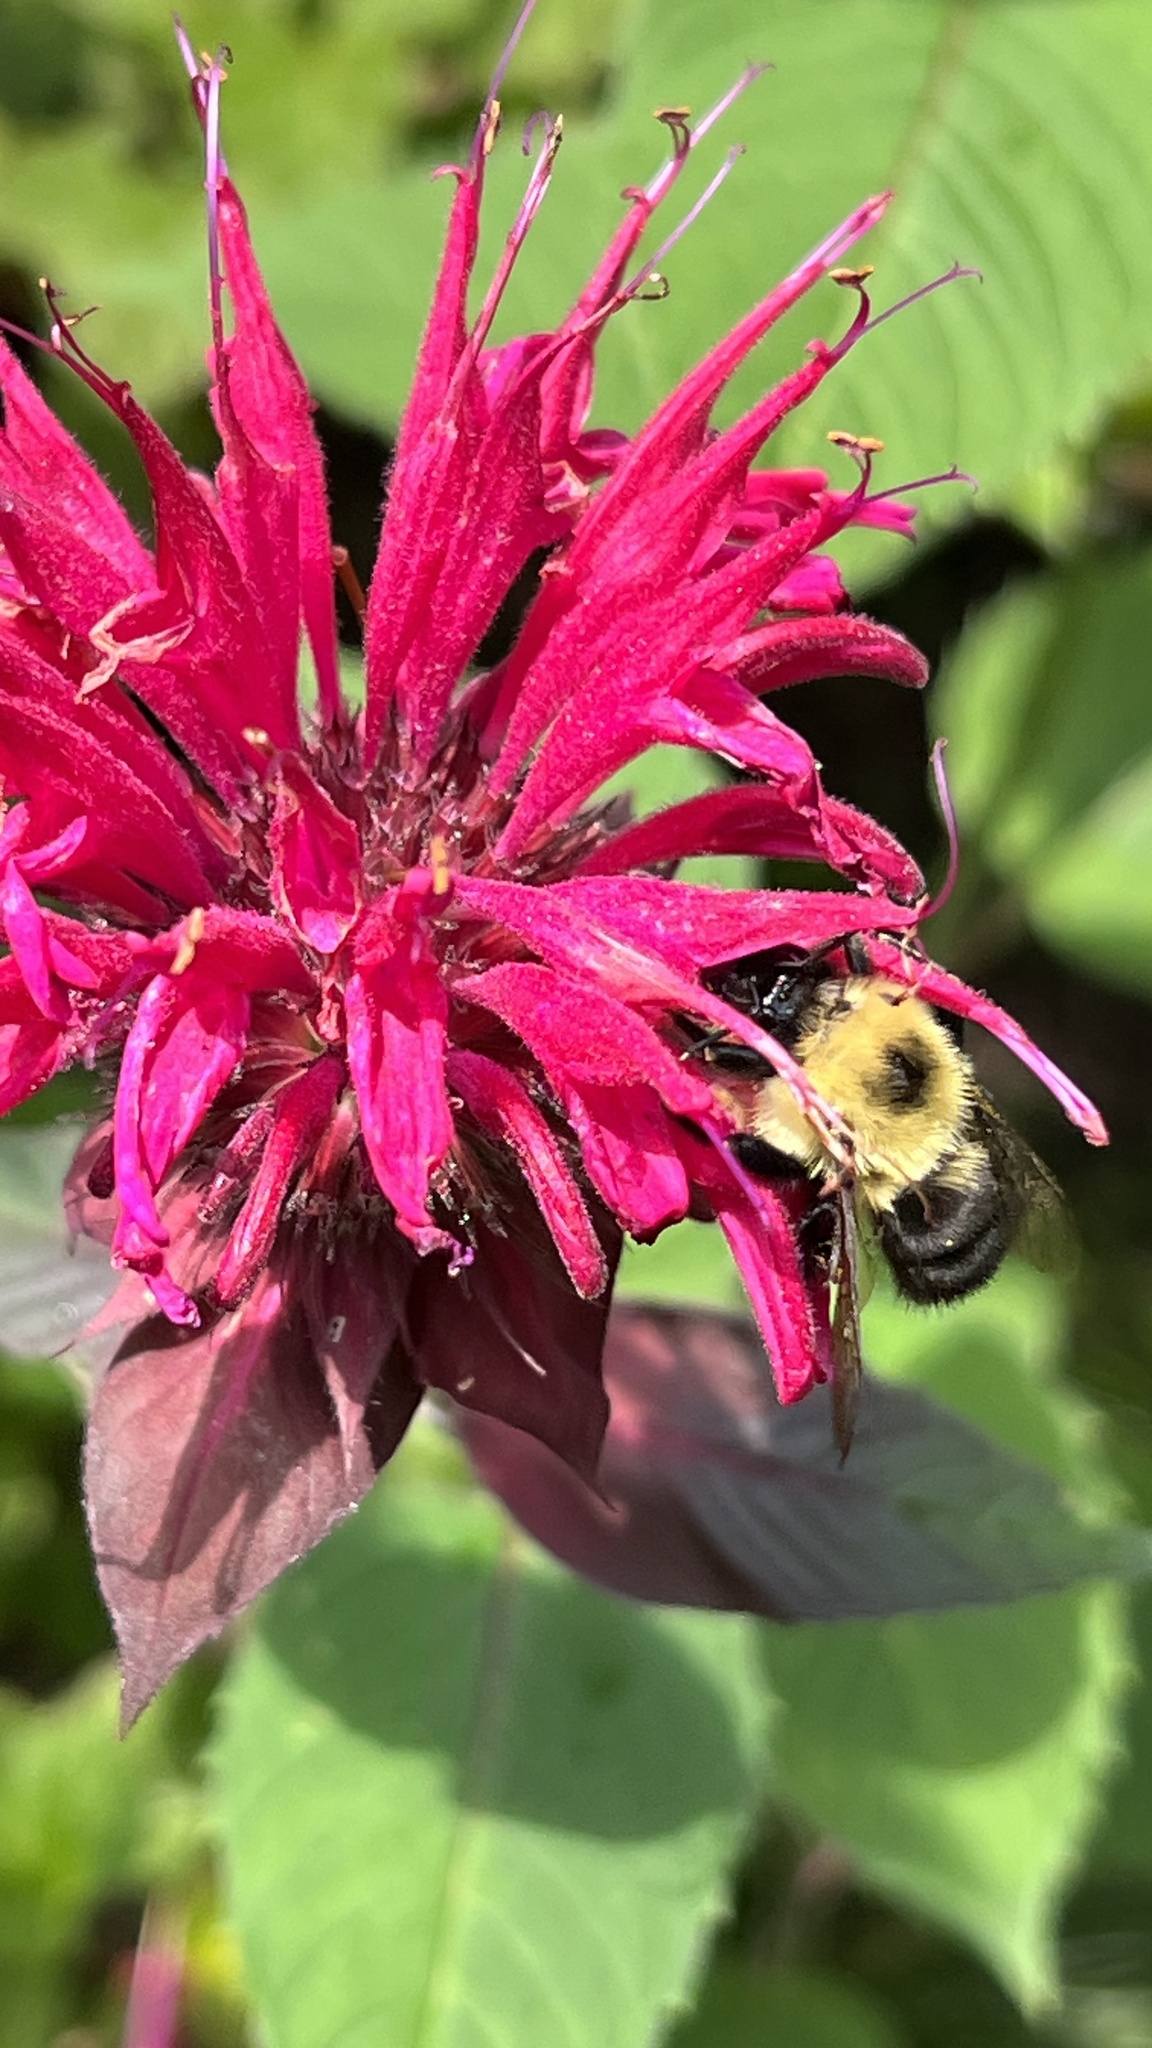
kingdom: Animalia
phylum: Arthropoda
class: Insecta
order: Hymenoptera
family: Apidae
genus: Bombus
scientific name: Bombus bimaculatus
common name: Two-spotted bumble bee
